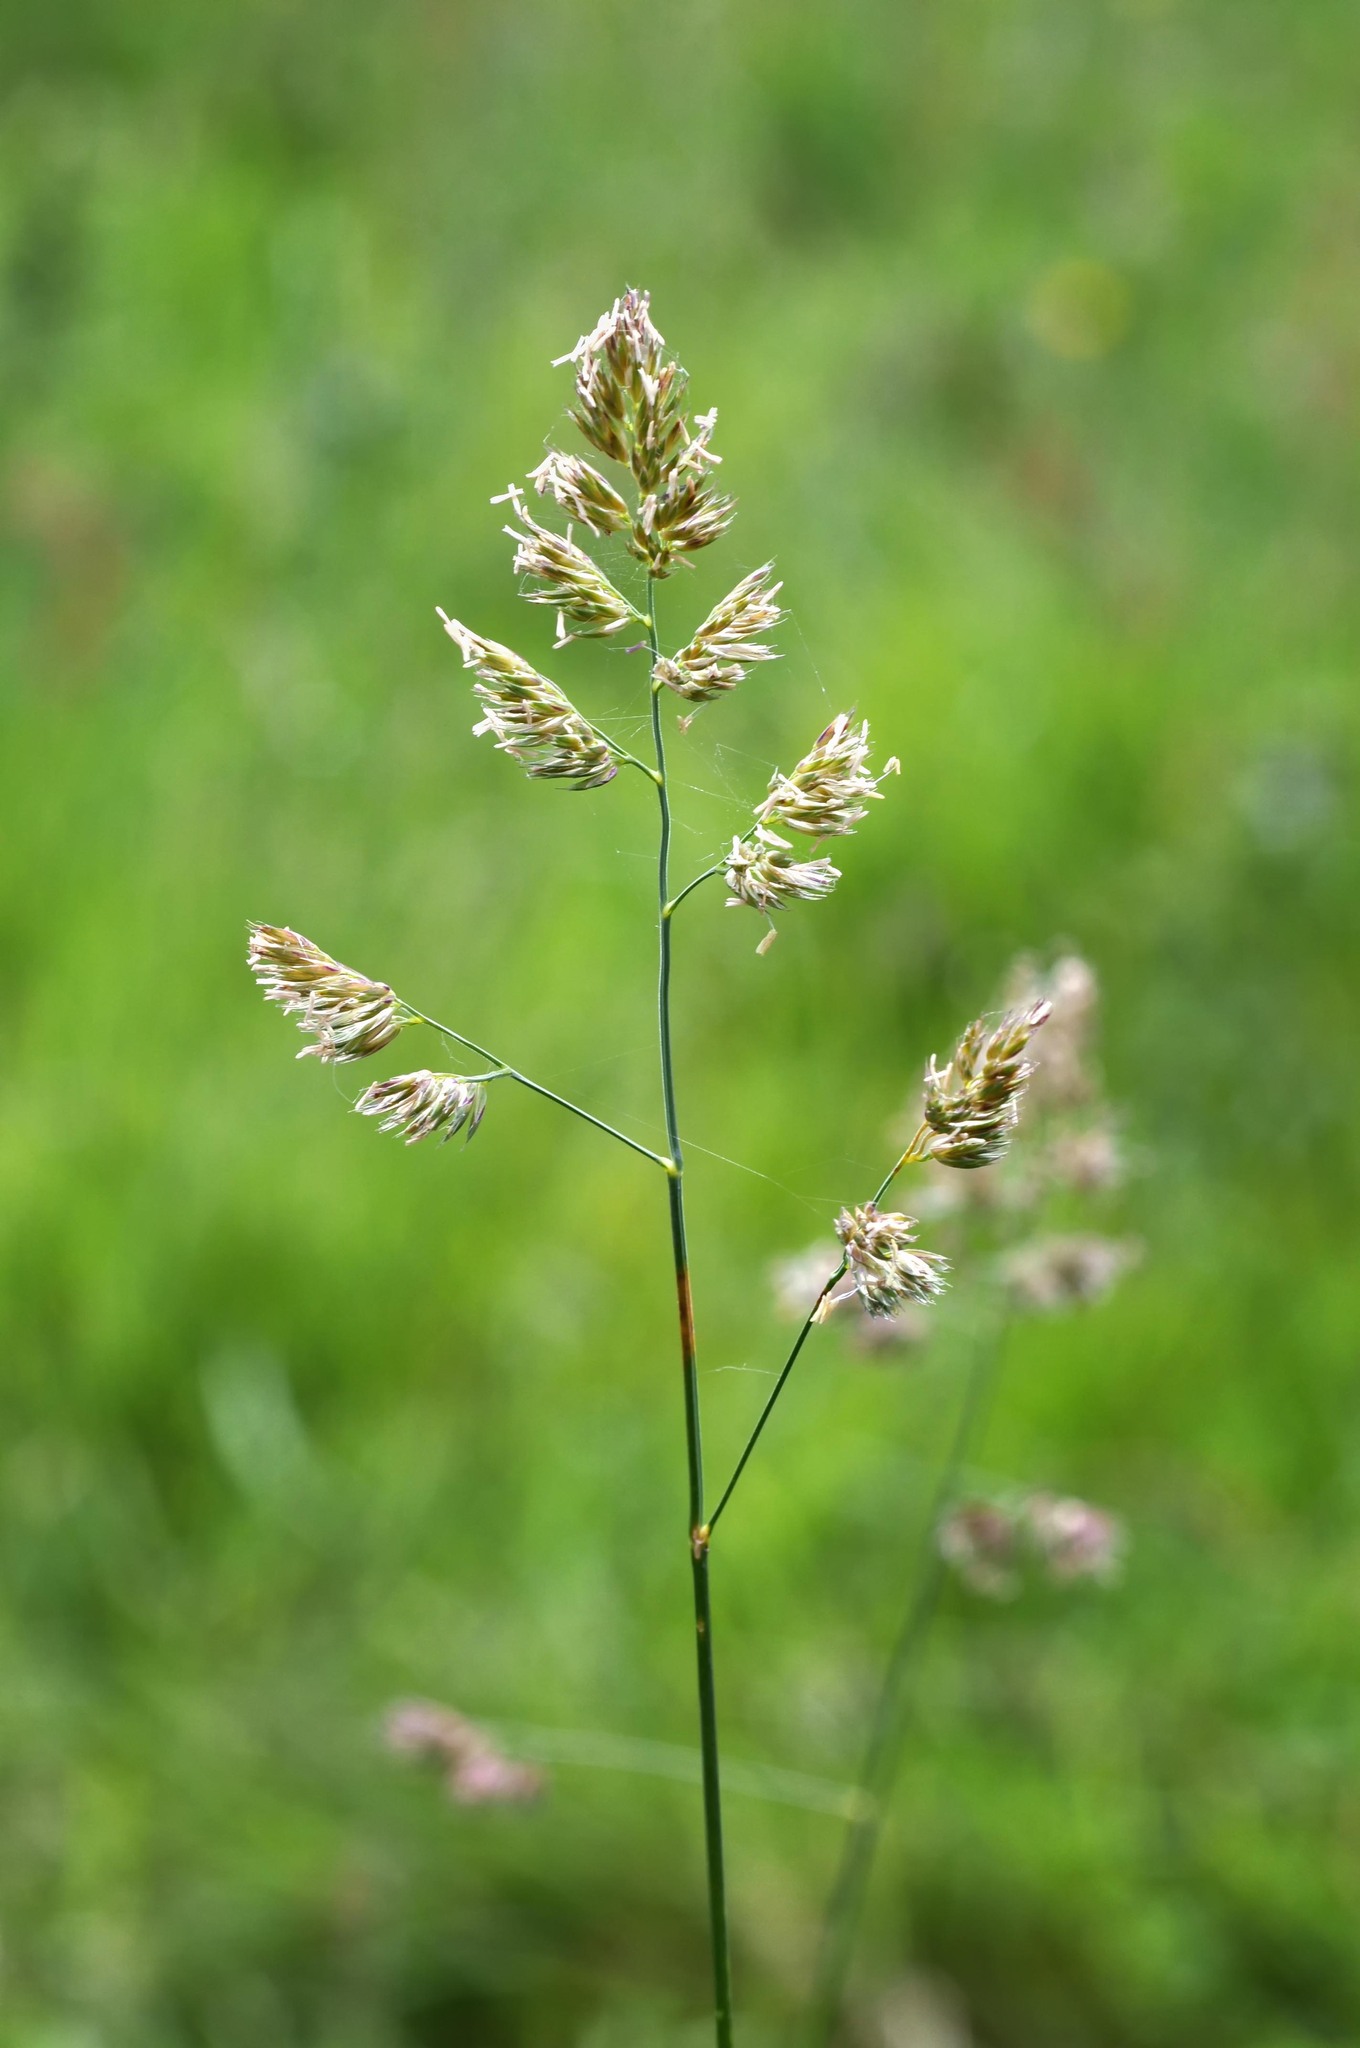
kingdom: Plantae
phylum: Tracheophyta
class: Liliopsida
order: Poales
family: Poaceae
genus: Dactylis
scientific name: Dactylis glomerata
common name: Orchardgrass
